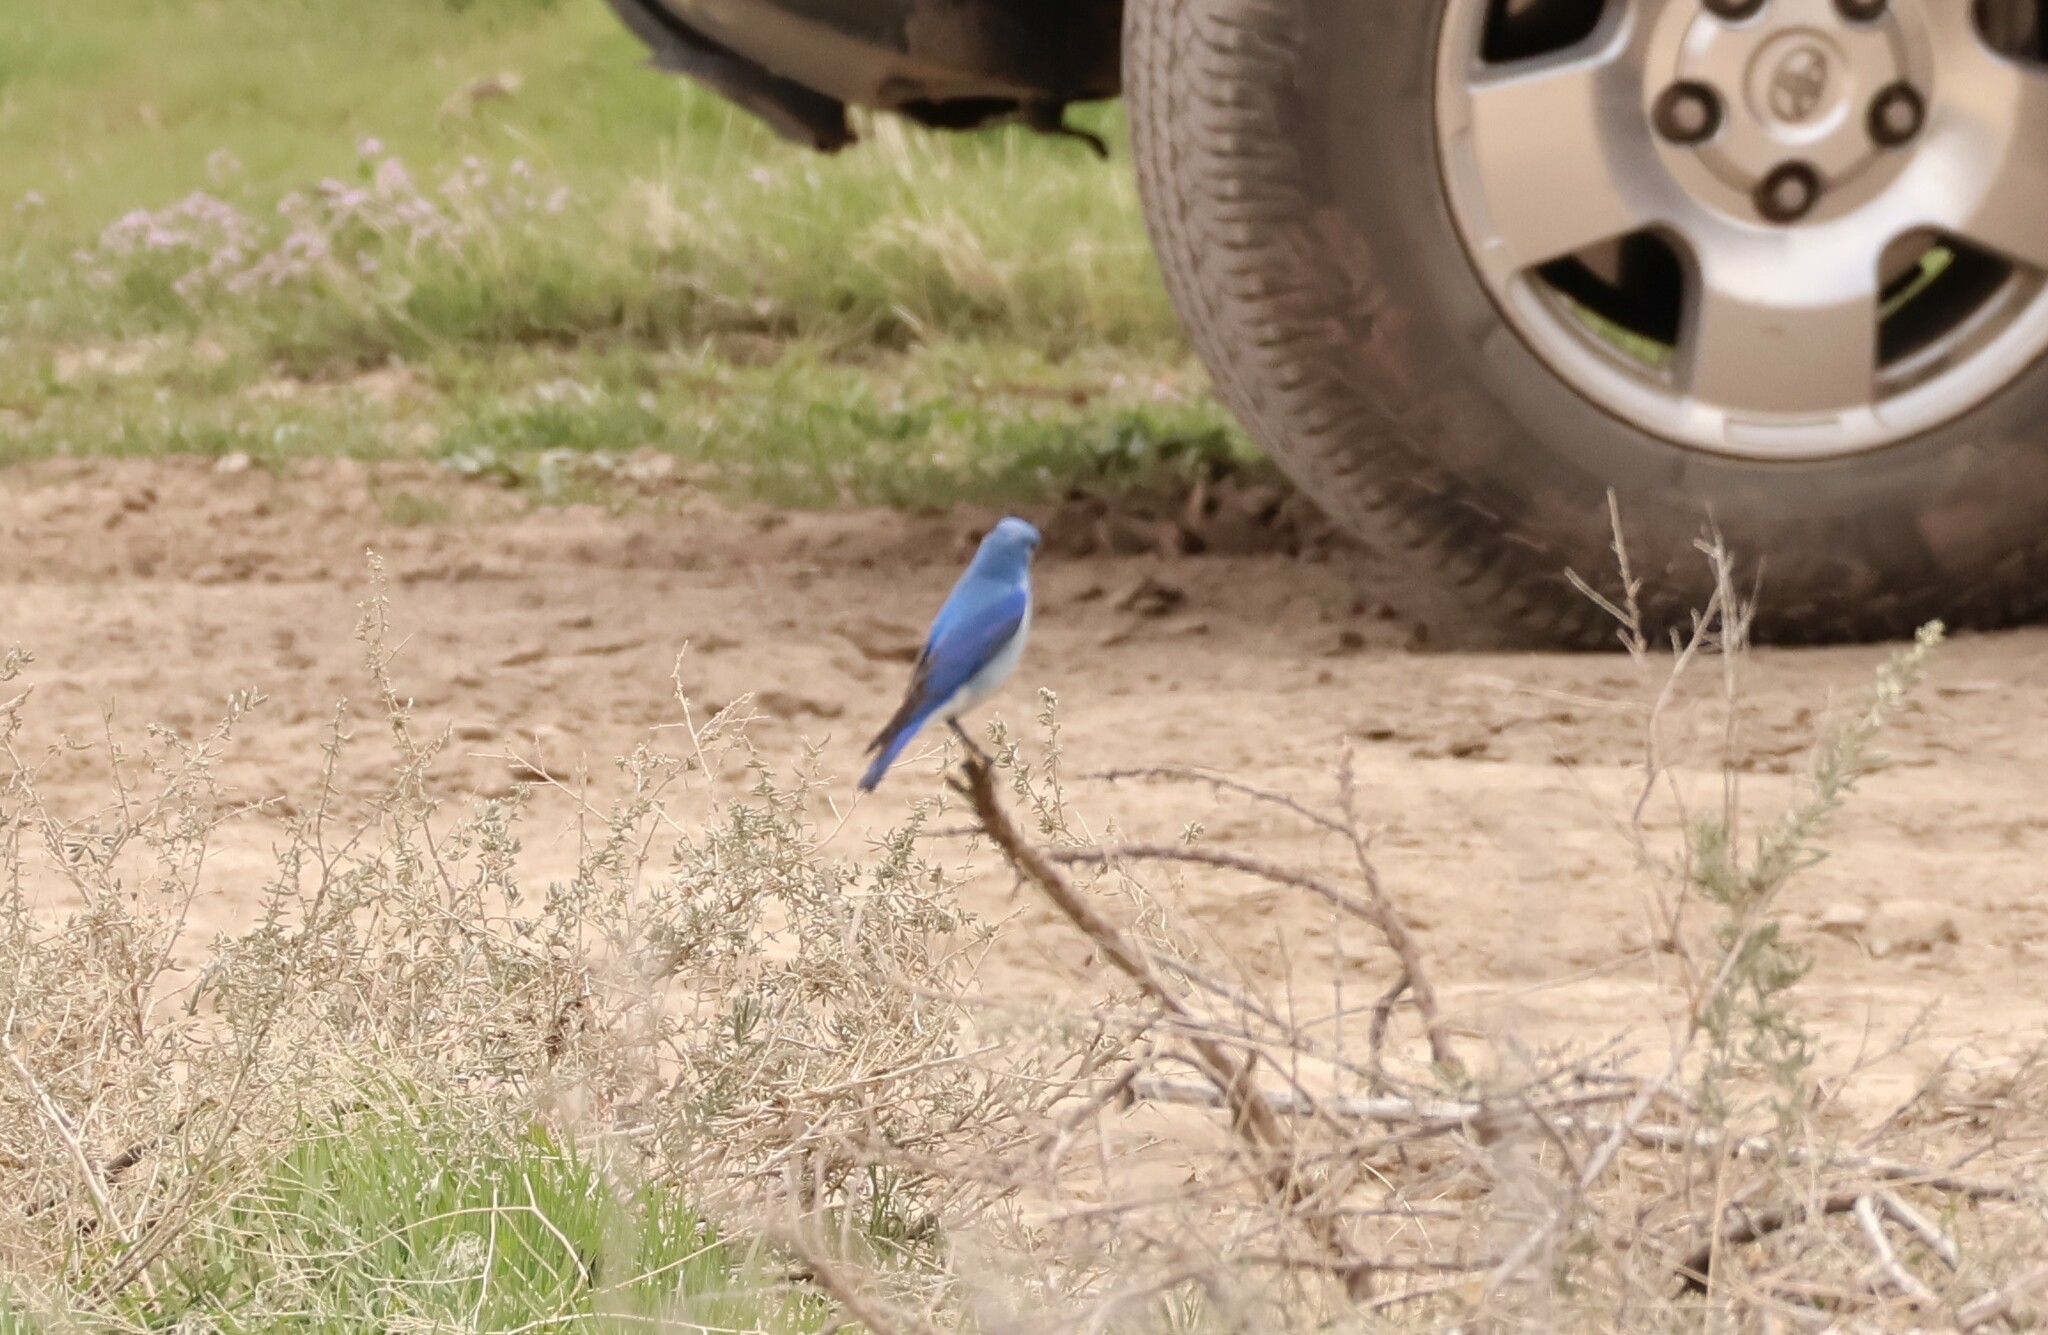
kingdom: Animalia
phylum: Chordata
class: Aves
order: Passeriformes
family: Turdidae
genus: Sialia
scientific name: Sialia currucoides
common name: Mountain bluebird
